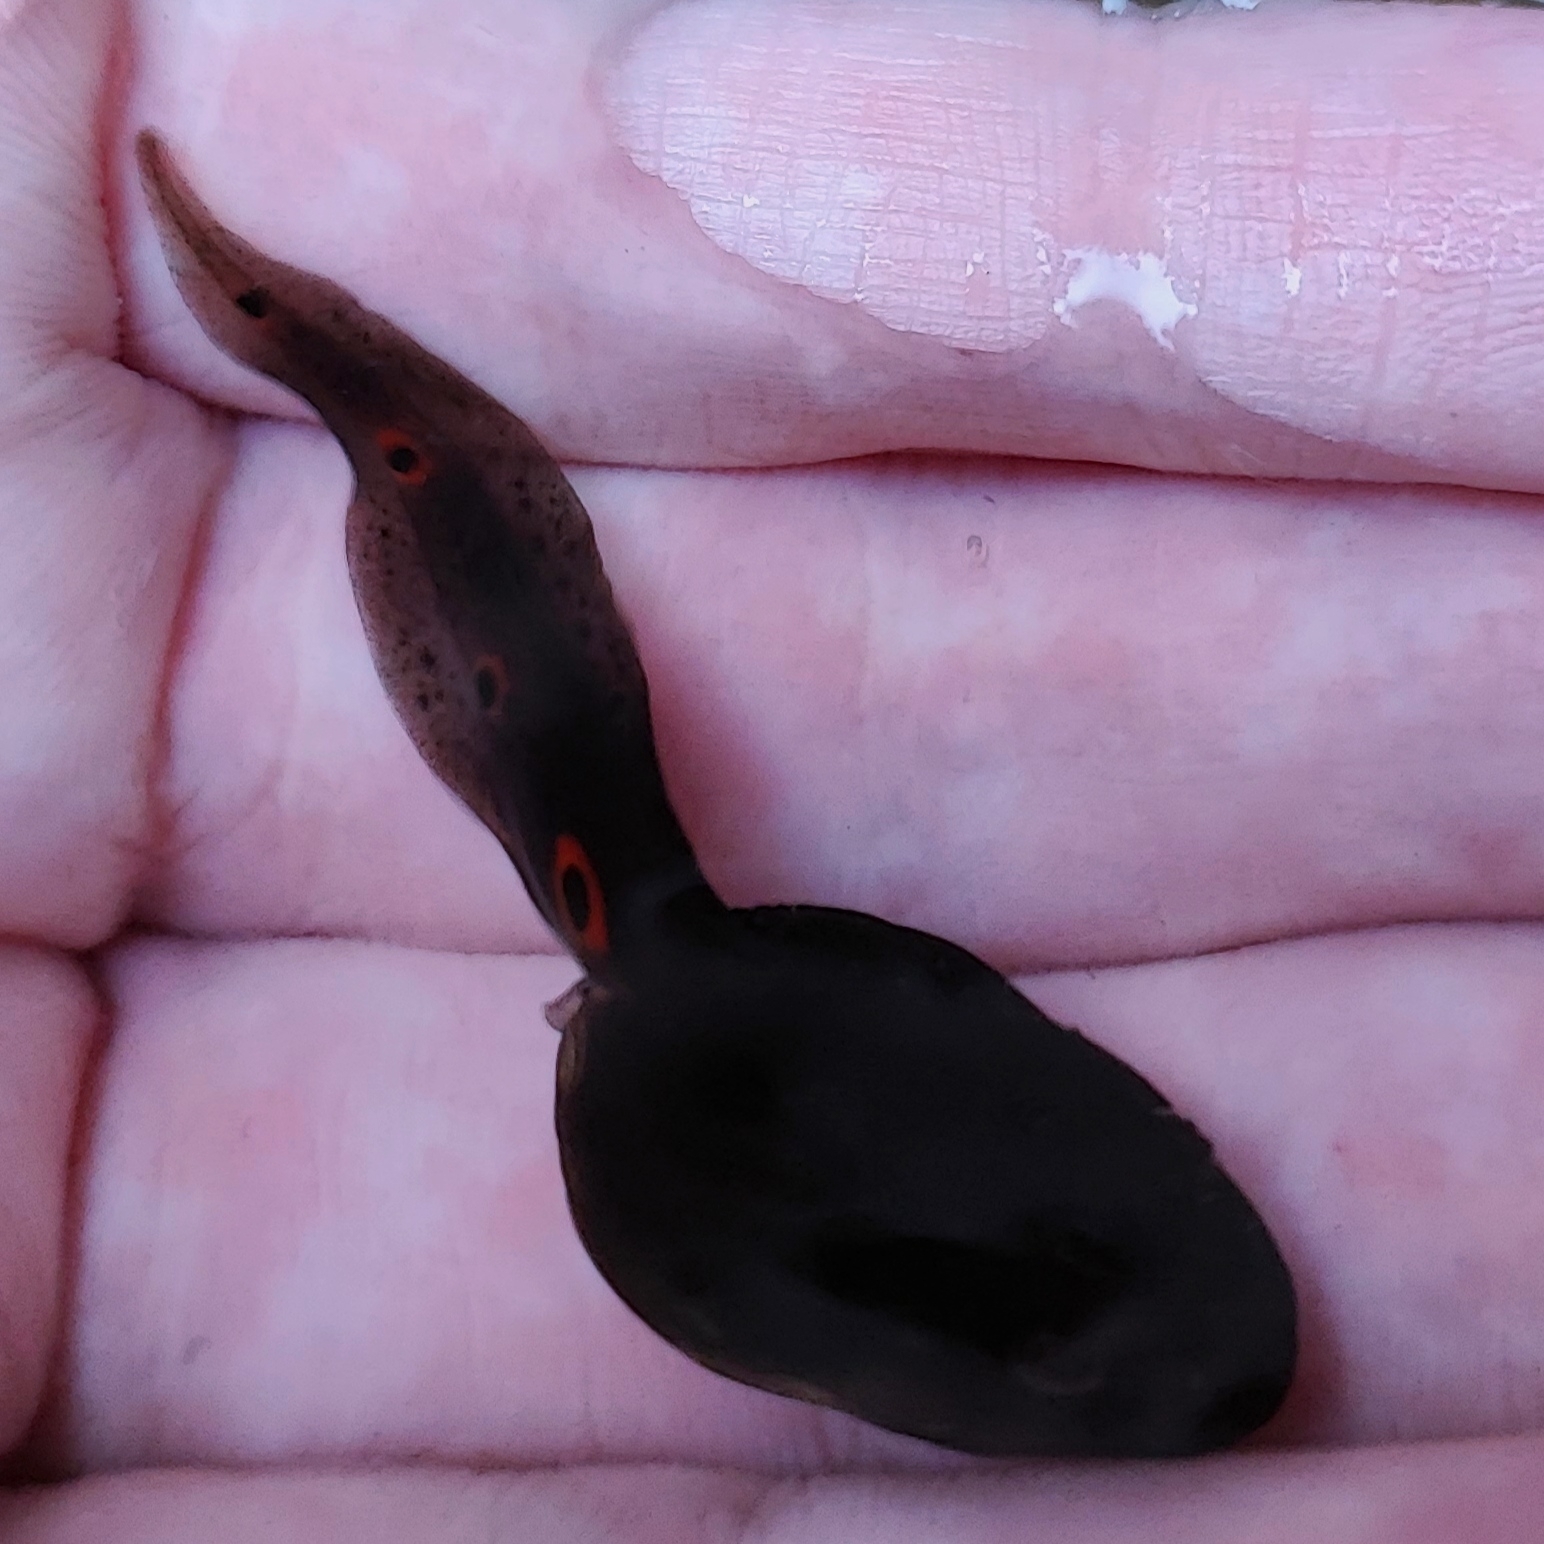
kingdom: Animalia
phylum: Chordata
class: Amphibia
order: Anura
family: Ranidae
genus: Clinotarsus
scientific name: Clinotarsus penelope
